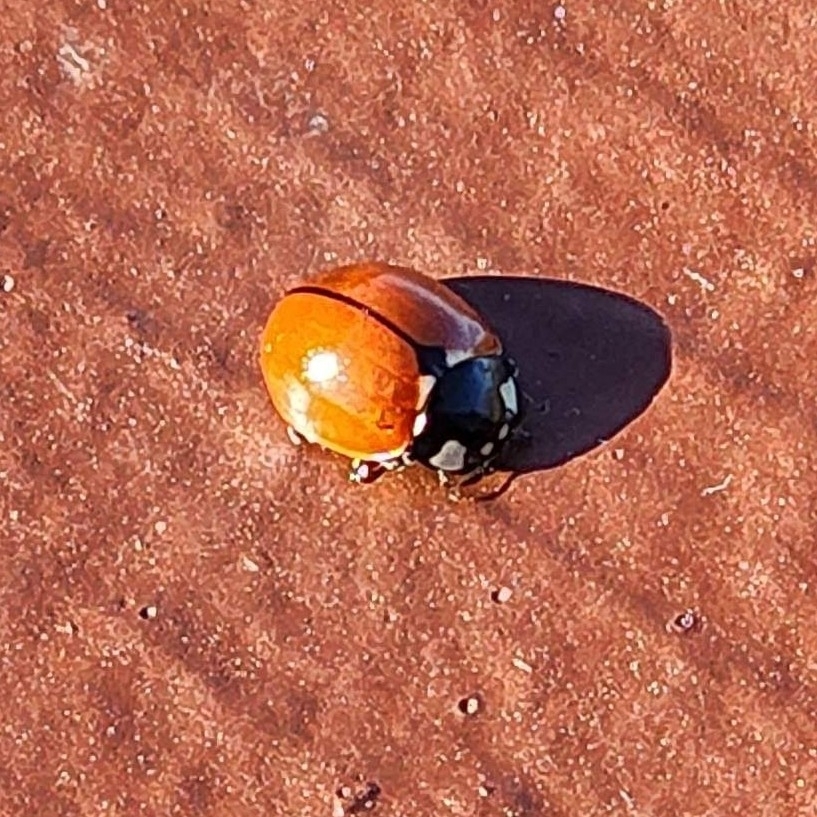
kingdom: Animalia
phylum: Arthropoda
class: Insecta
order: Coleoptera
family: Coccinellidae
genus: Coccinella
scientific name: Coccinella californica
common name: Lady beetle
